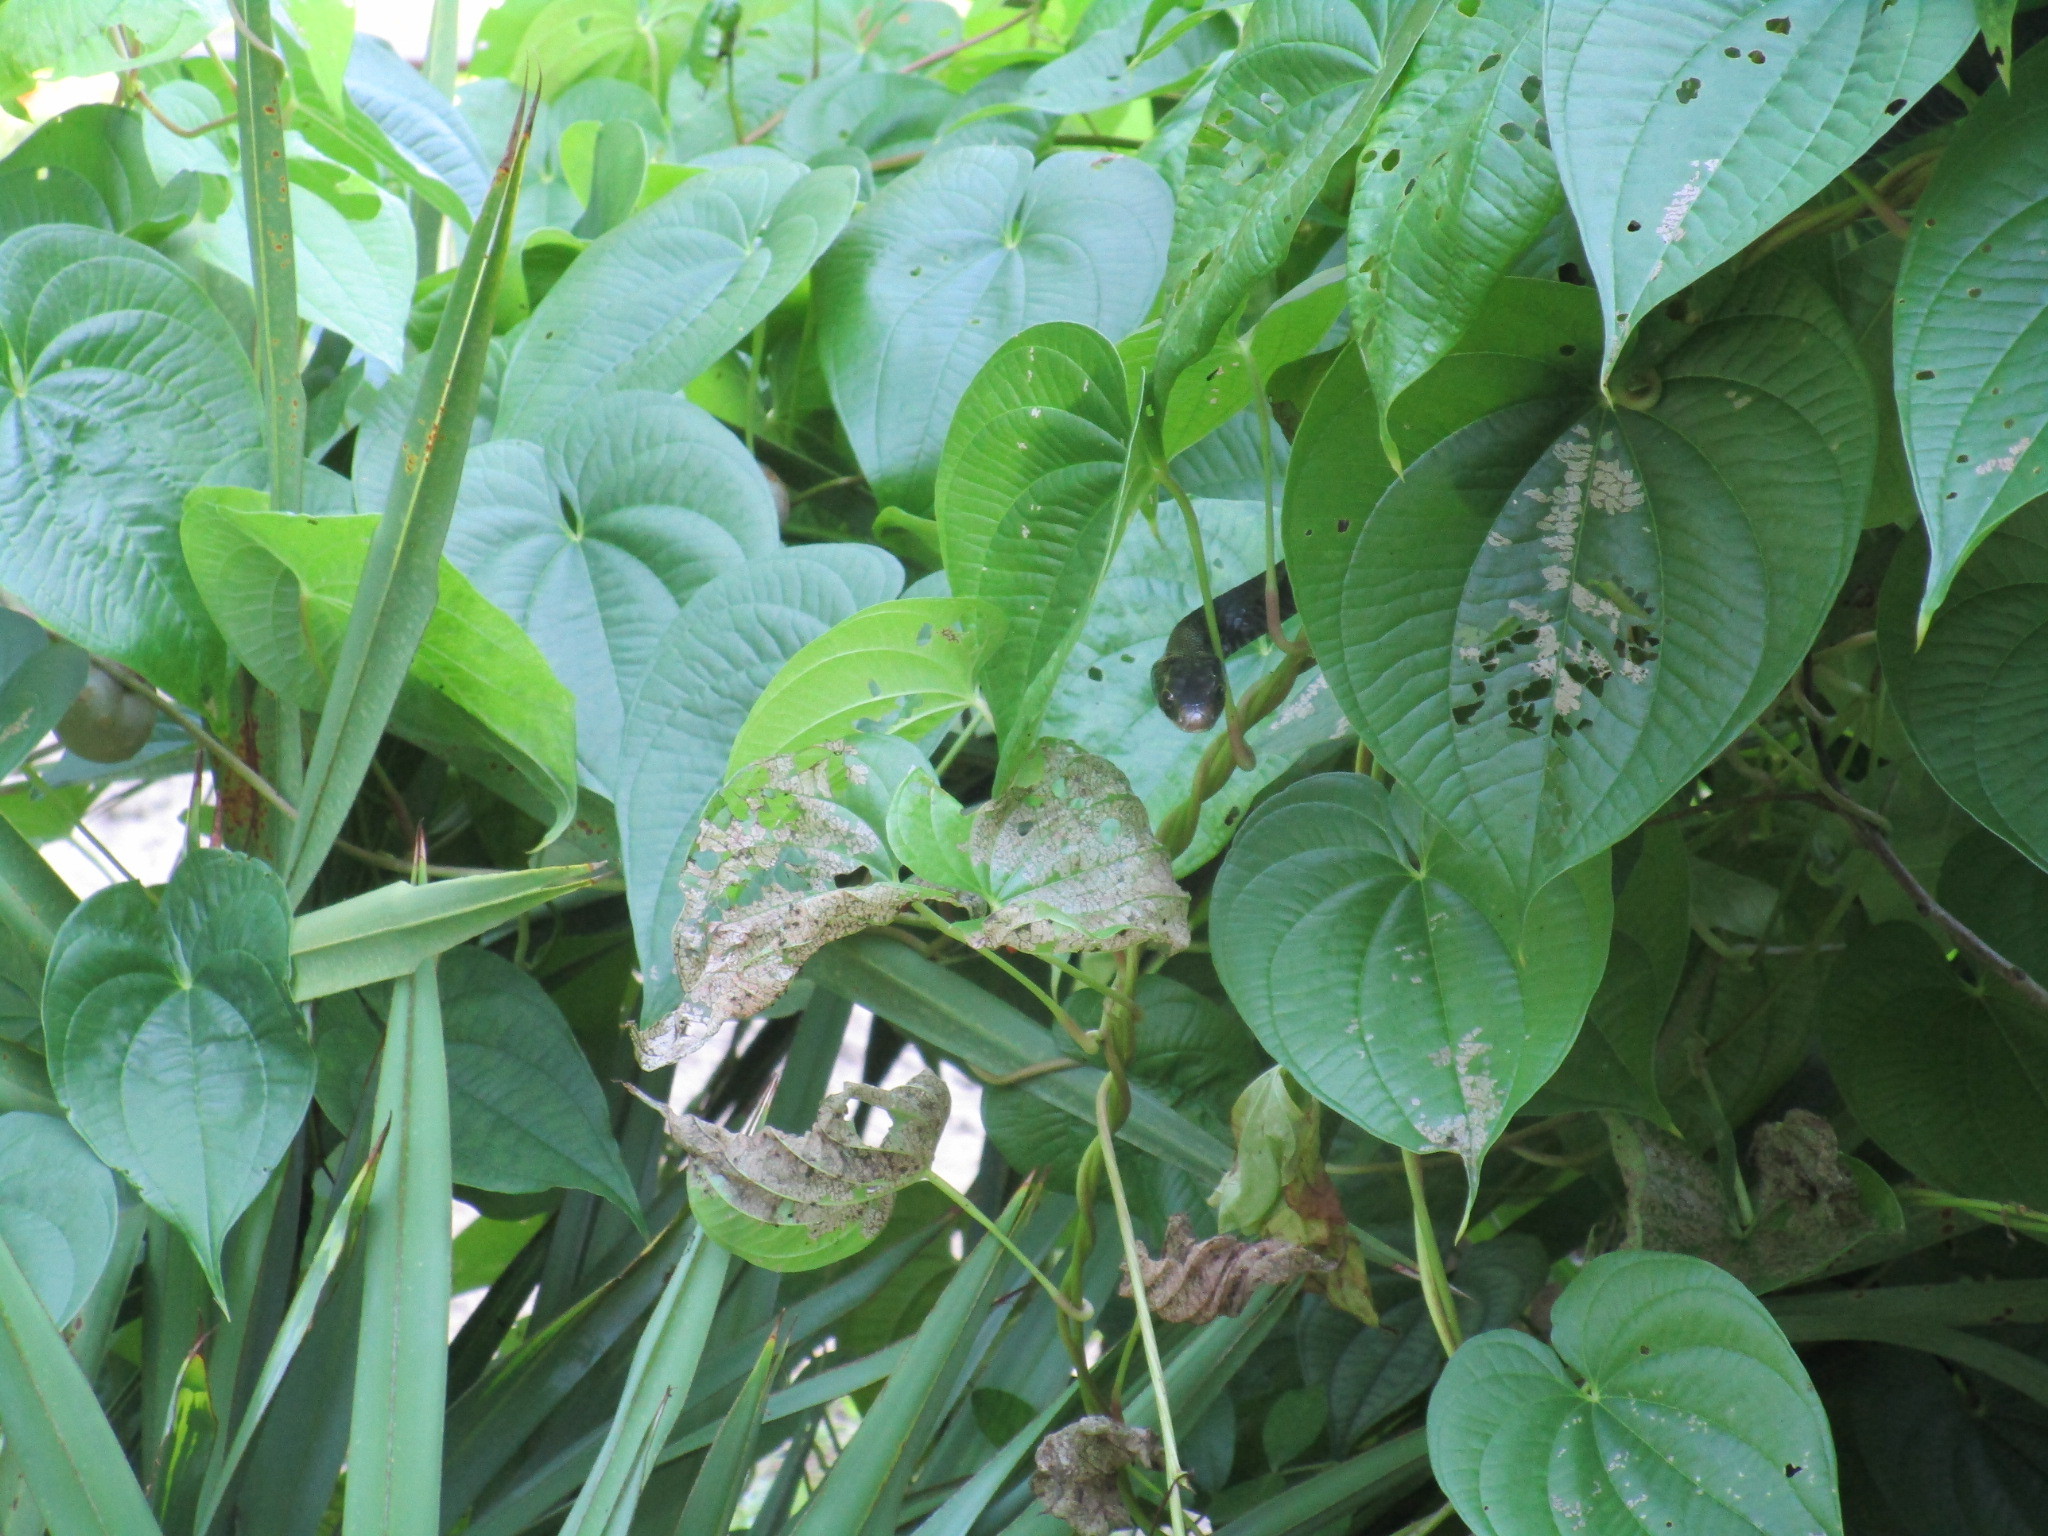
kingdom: Animalia
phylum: Chordata
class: Squamata
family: Colubridae
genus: Coluber
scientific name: Coluber constrictor
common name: Eastern racer
